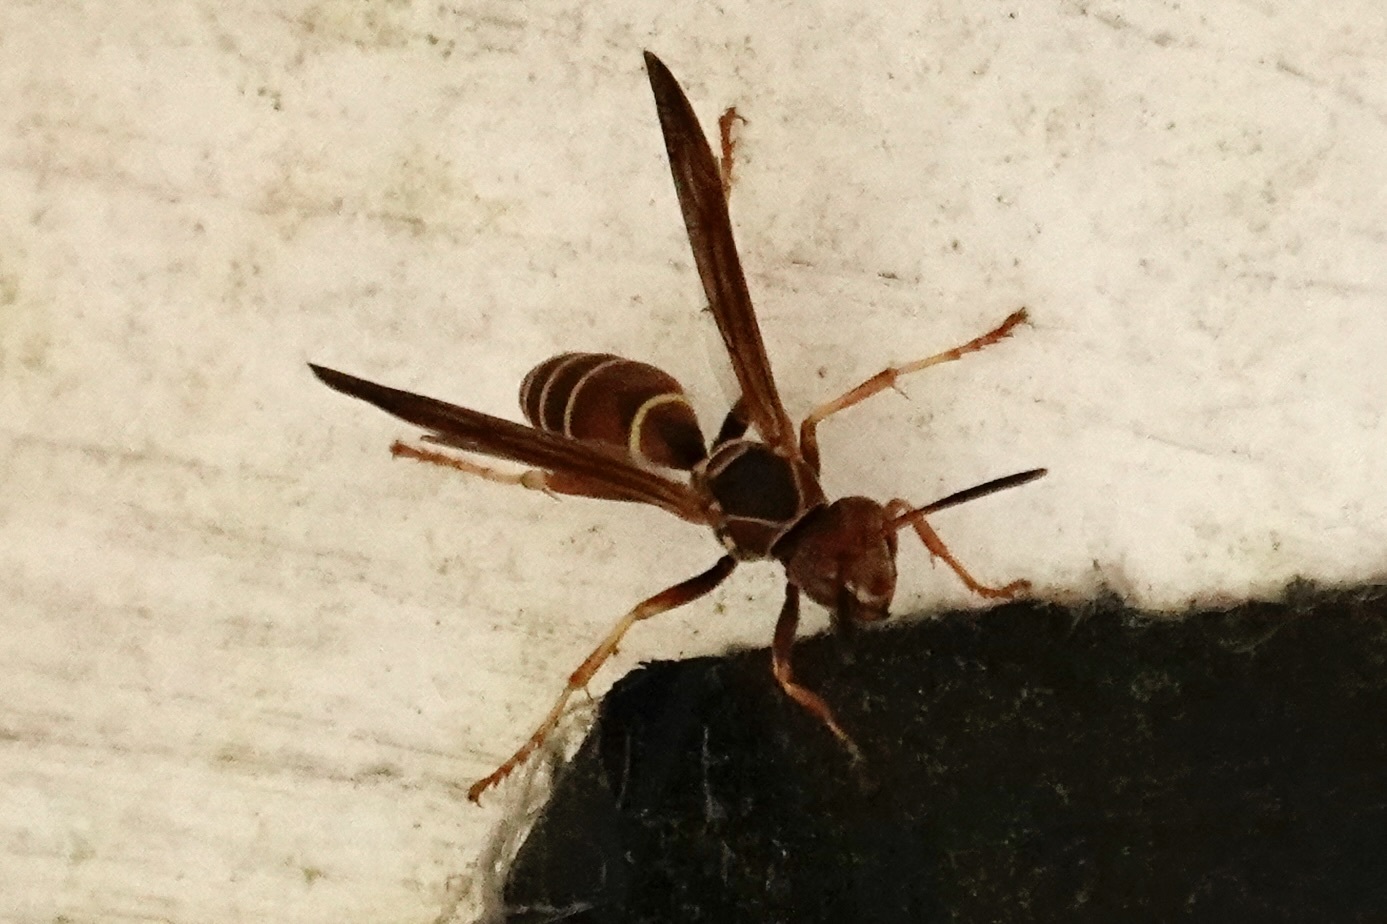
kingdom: Animalia
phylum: Arthropoda
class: Insecta
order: Hymenoptera
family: Eumenidae
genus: Polistes
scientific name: Polistes dorsalis
